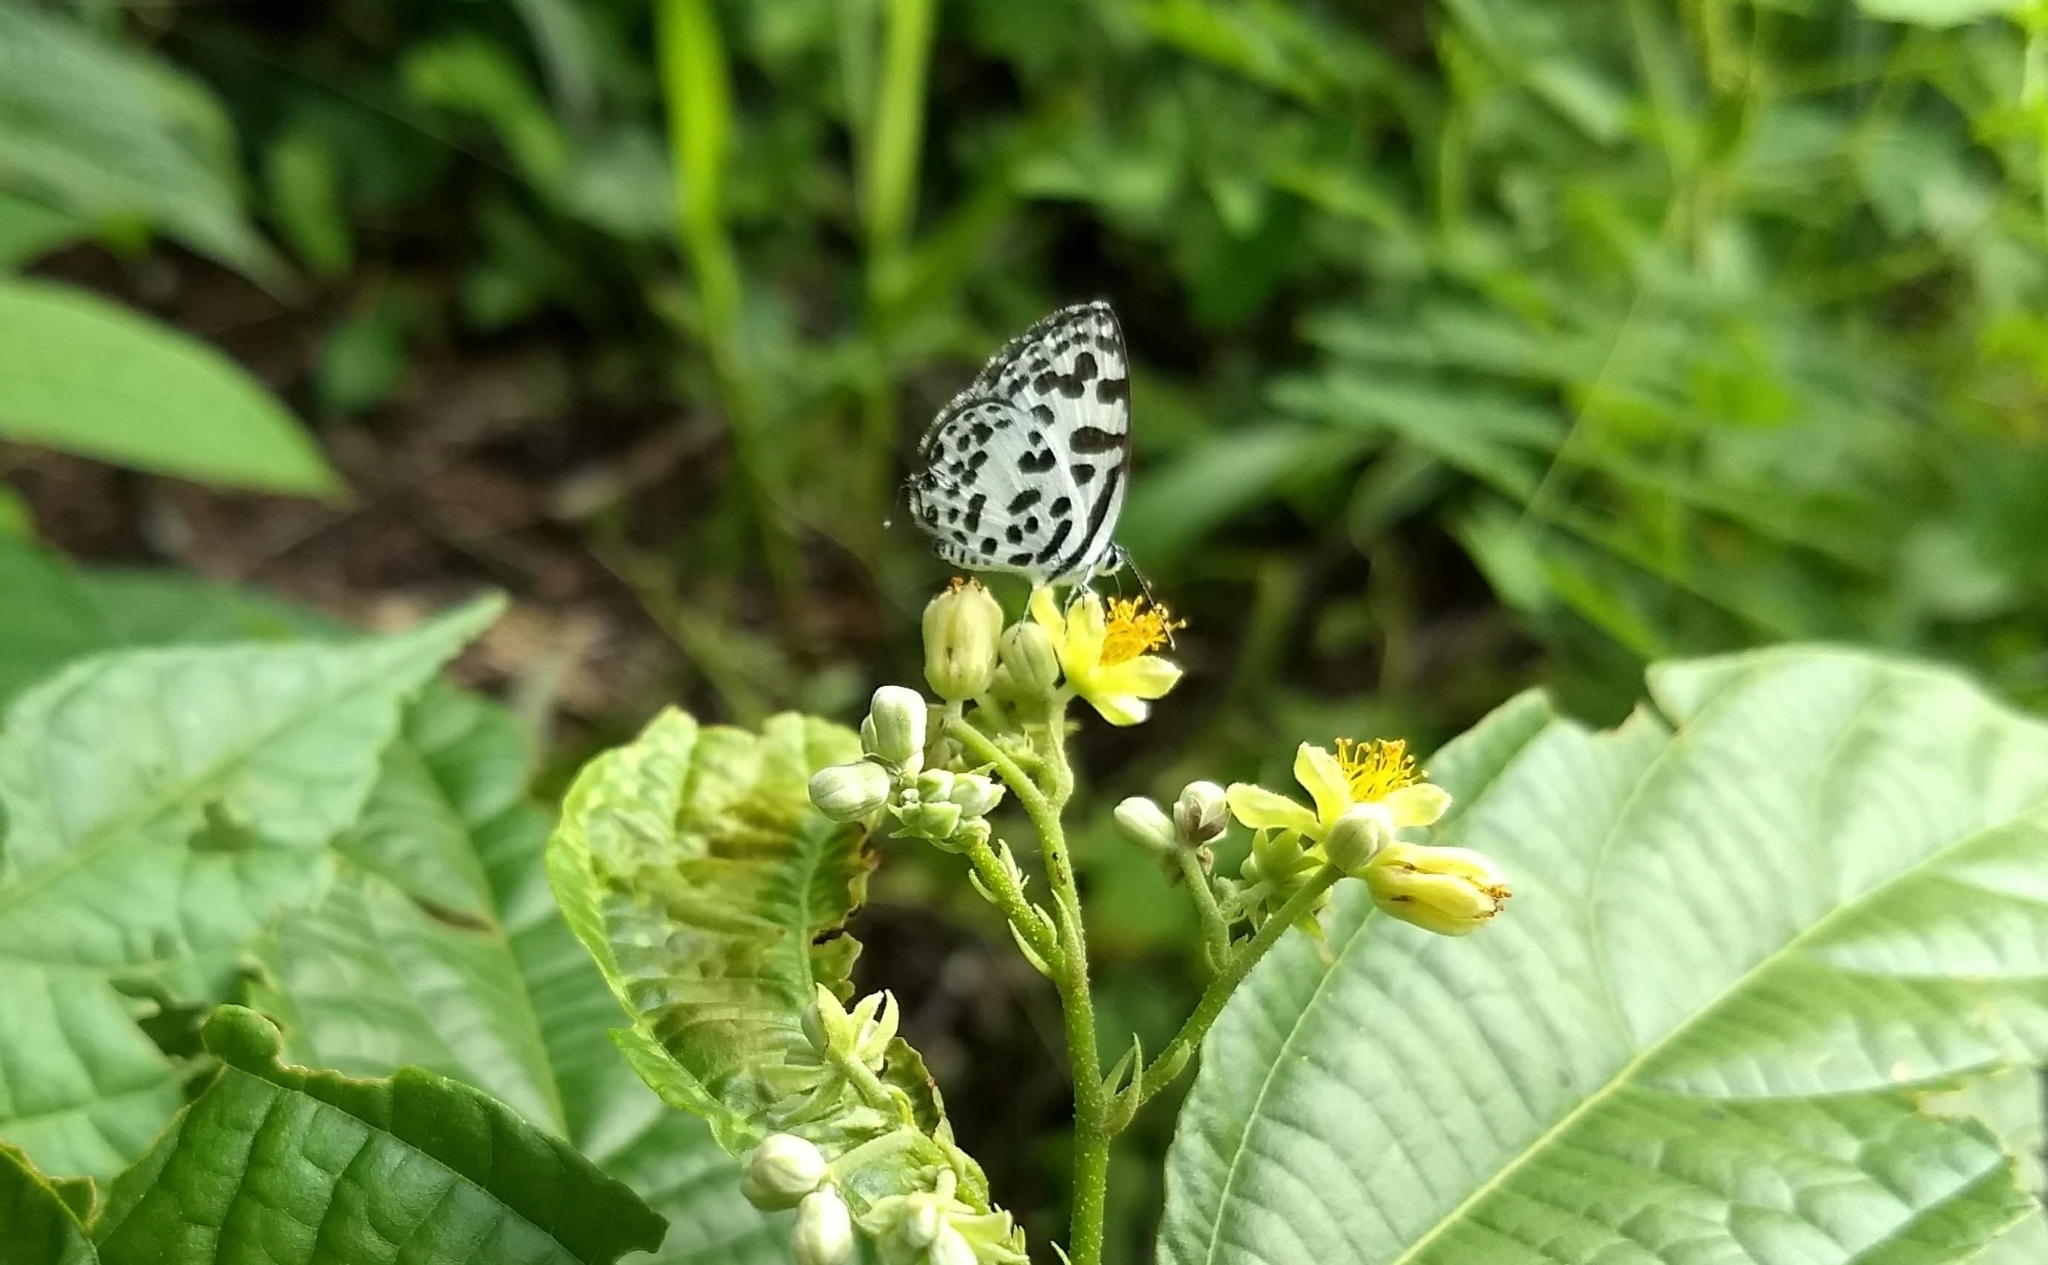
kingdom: Animalia
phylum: Arthropoda
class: Insecta
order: Lepidoptera
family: Lycaenidae
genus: Castalius
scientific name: Castalius rosimon
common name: Common pierrot
